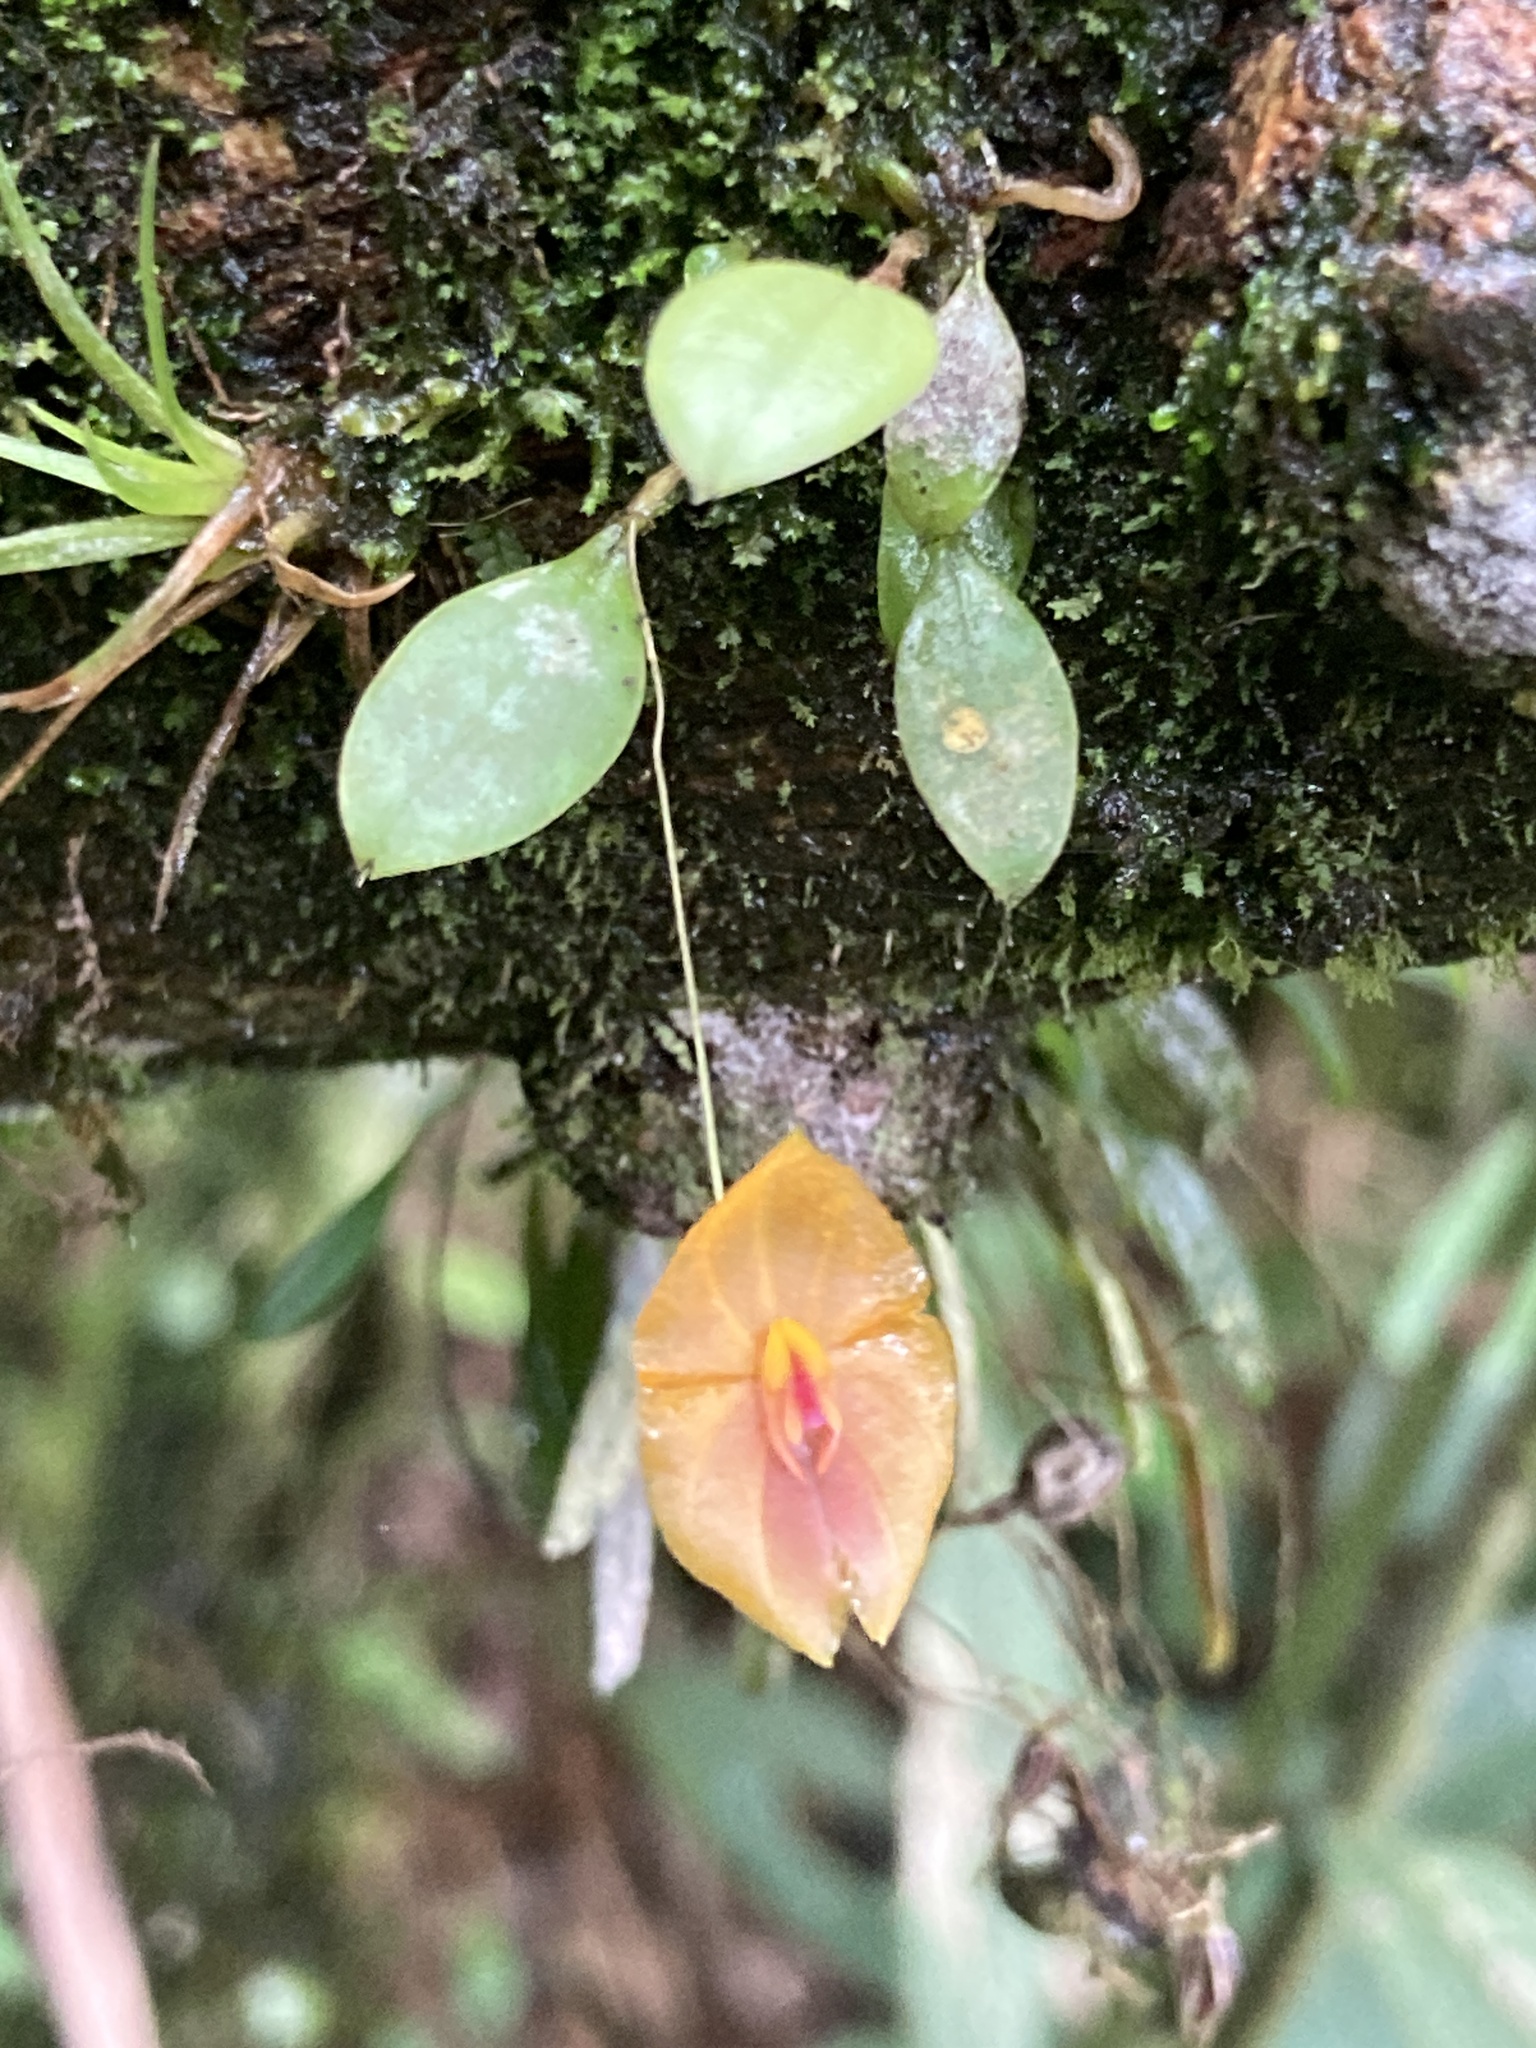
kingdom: Plantae
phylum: Tracheophyta
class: Liliopsida
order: Asparagales
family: Orchidaceae
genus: Lepanthes
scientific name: Lepanthes matisii
